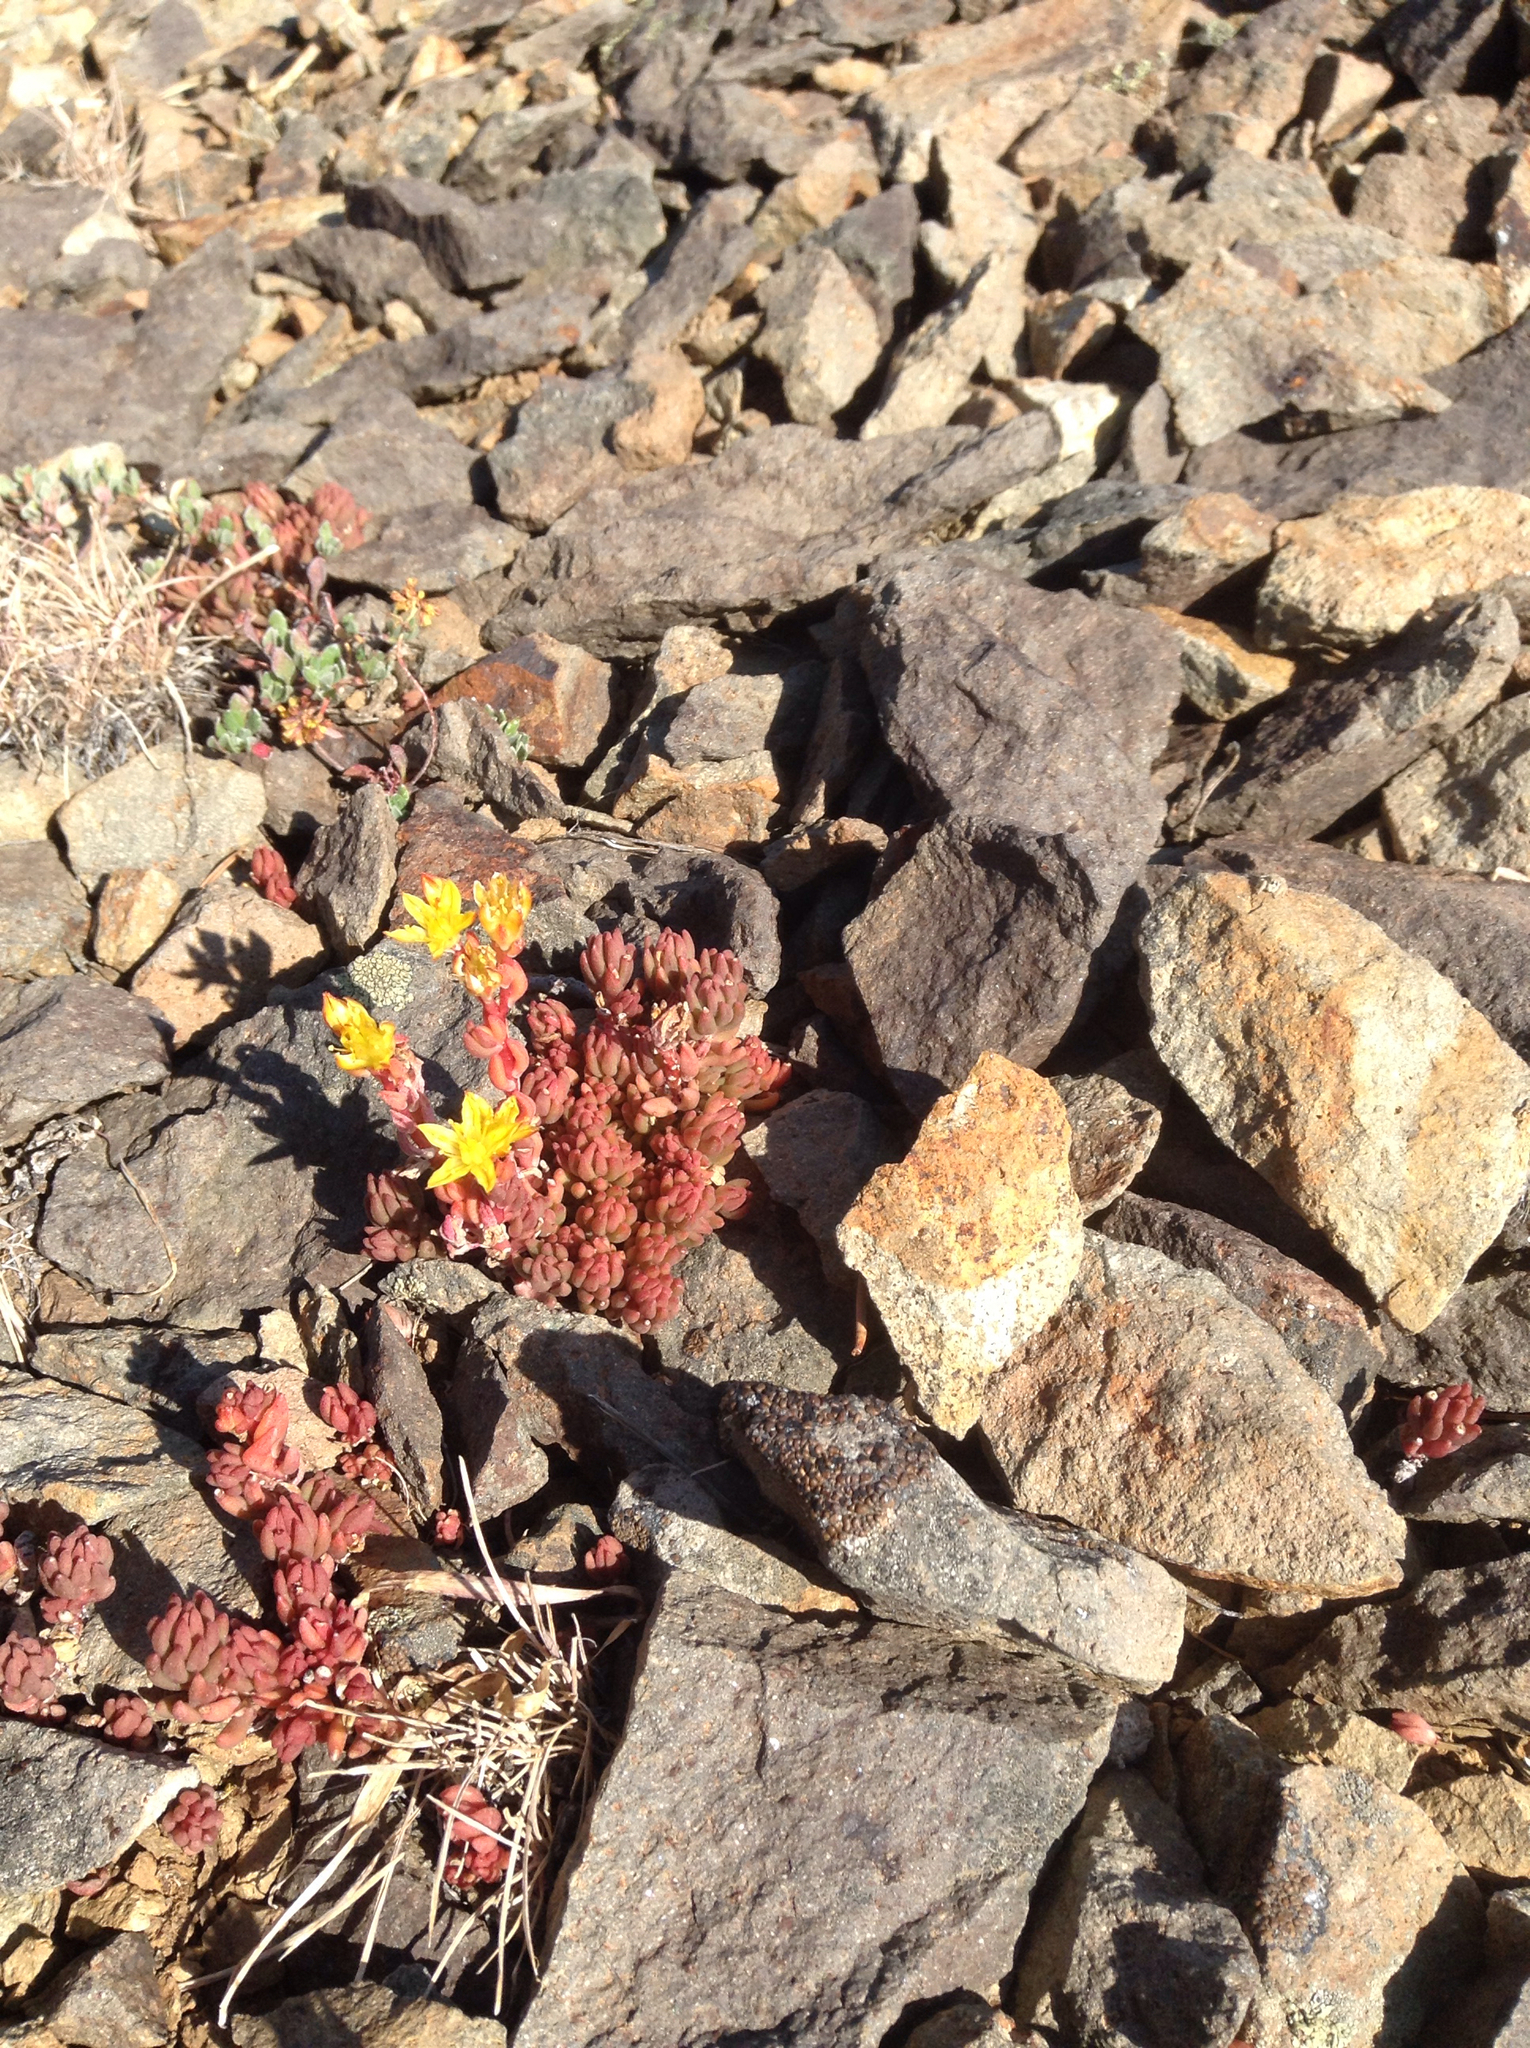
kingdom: Plantae
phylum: Tracheophyta
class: Magnoliopsida
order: Saxifragales
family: Crassulaceae
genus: Sedum
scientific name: Sedum lanceolatum
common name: Common stonecrop
